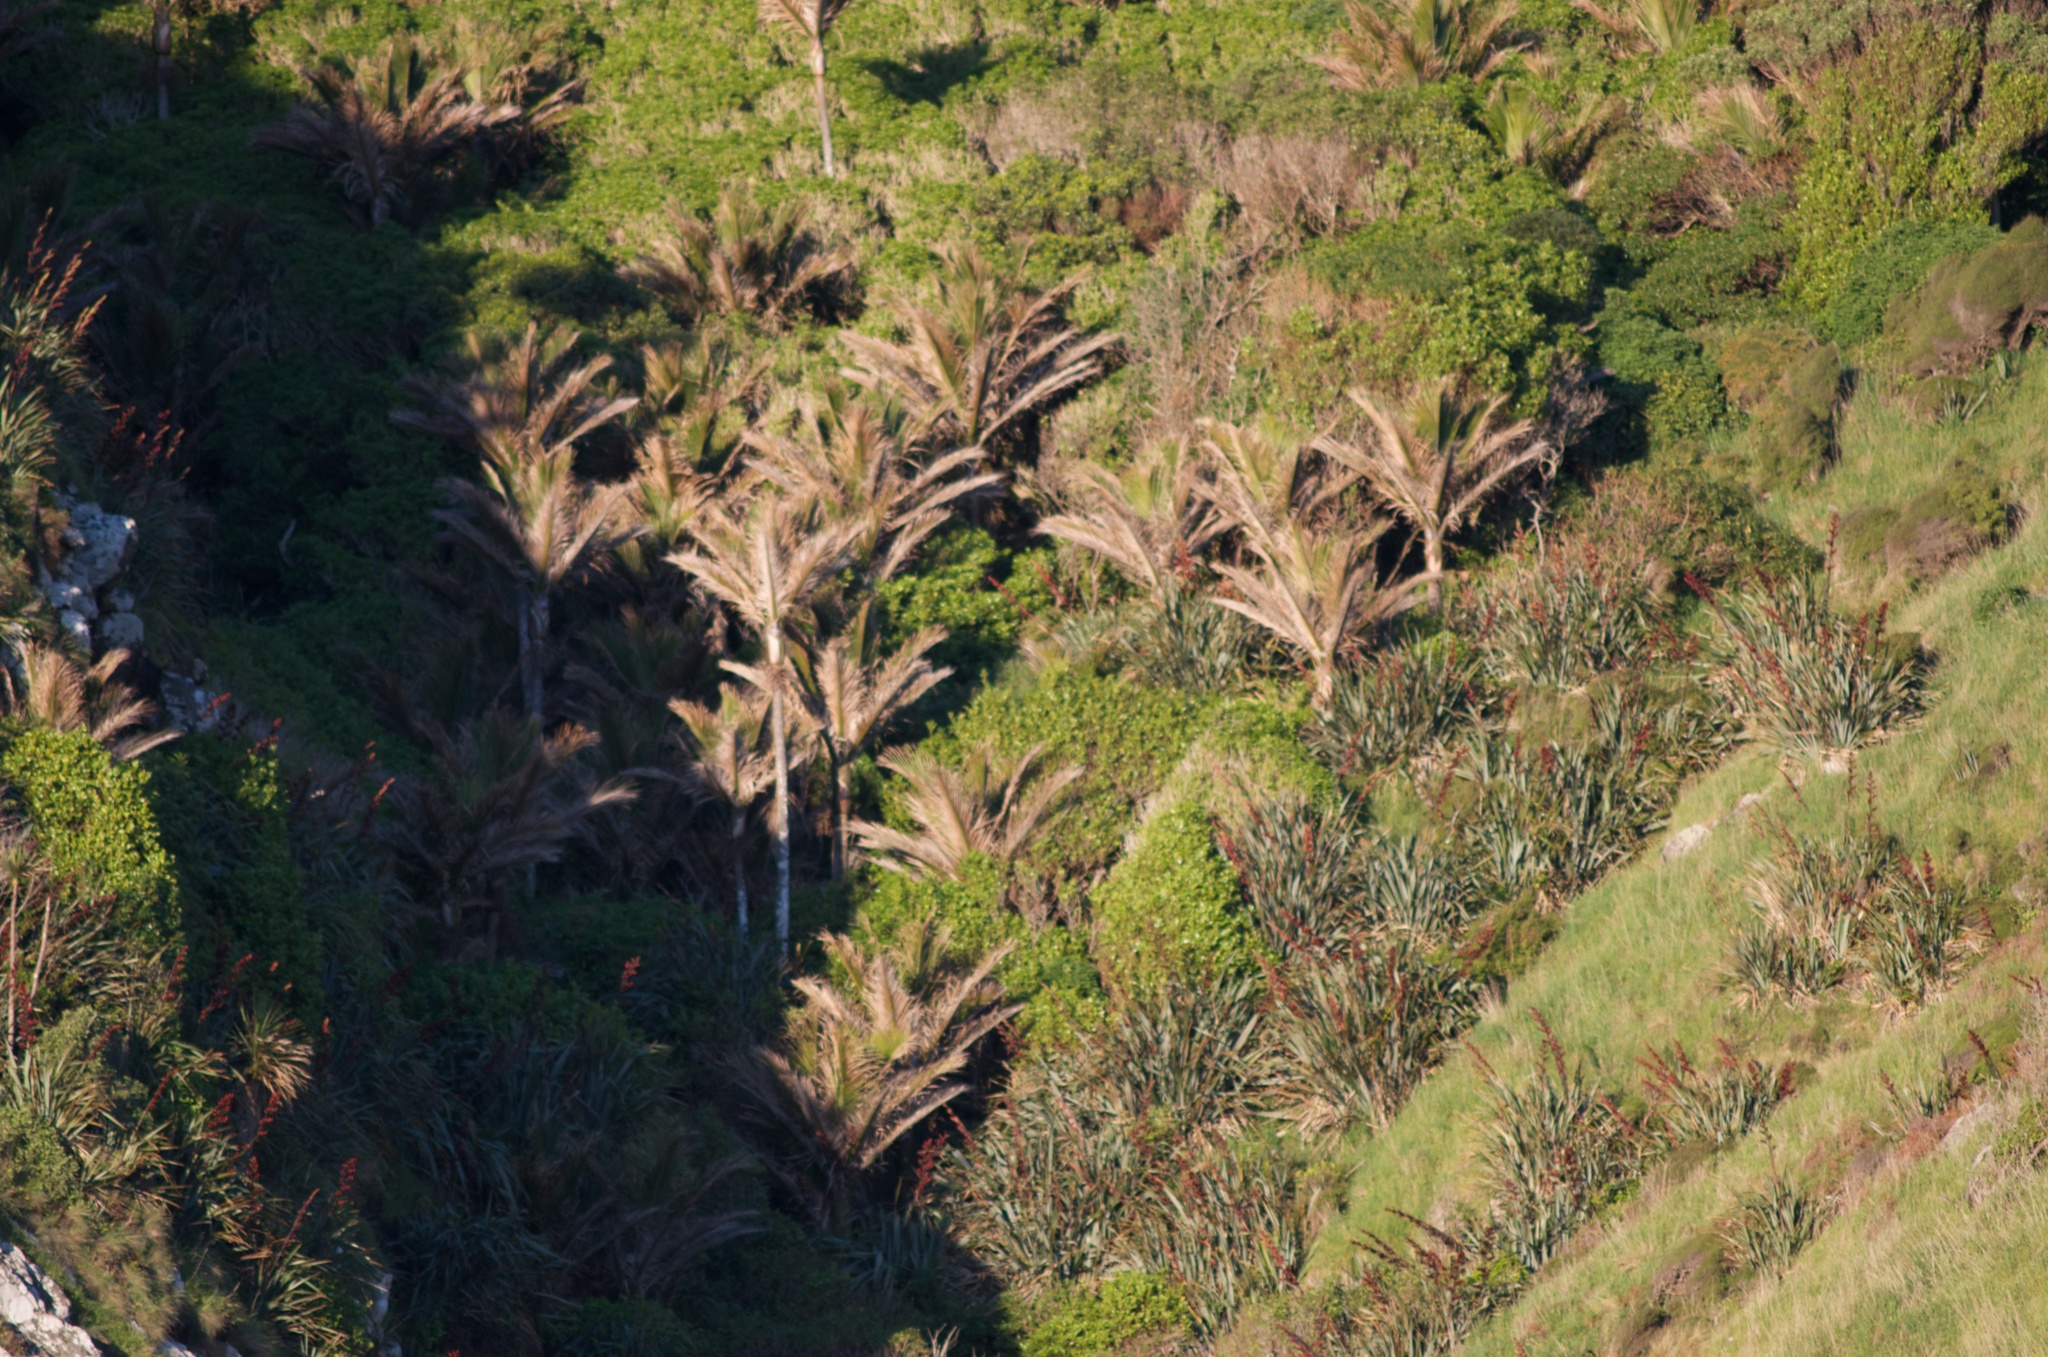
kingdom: Plantae
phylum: Tracheophyta
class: Liliopsida
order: Asparagales
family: Asphodelaceae
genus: Phormium
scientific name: Phormium tenax
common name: New zealand flax
